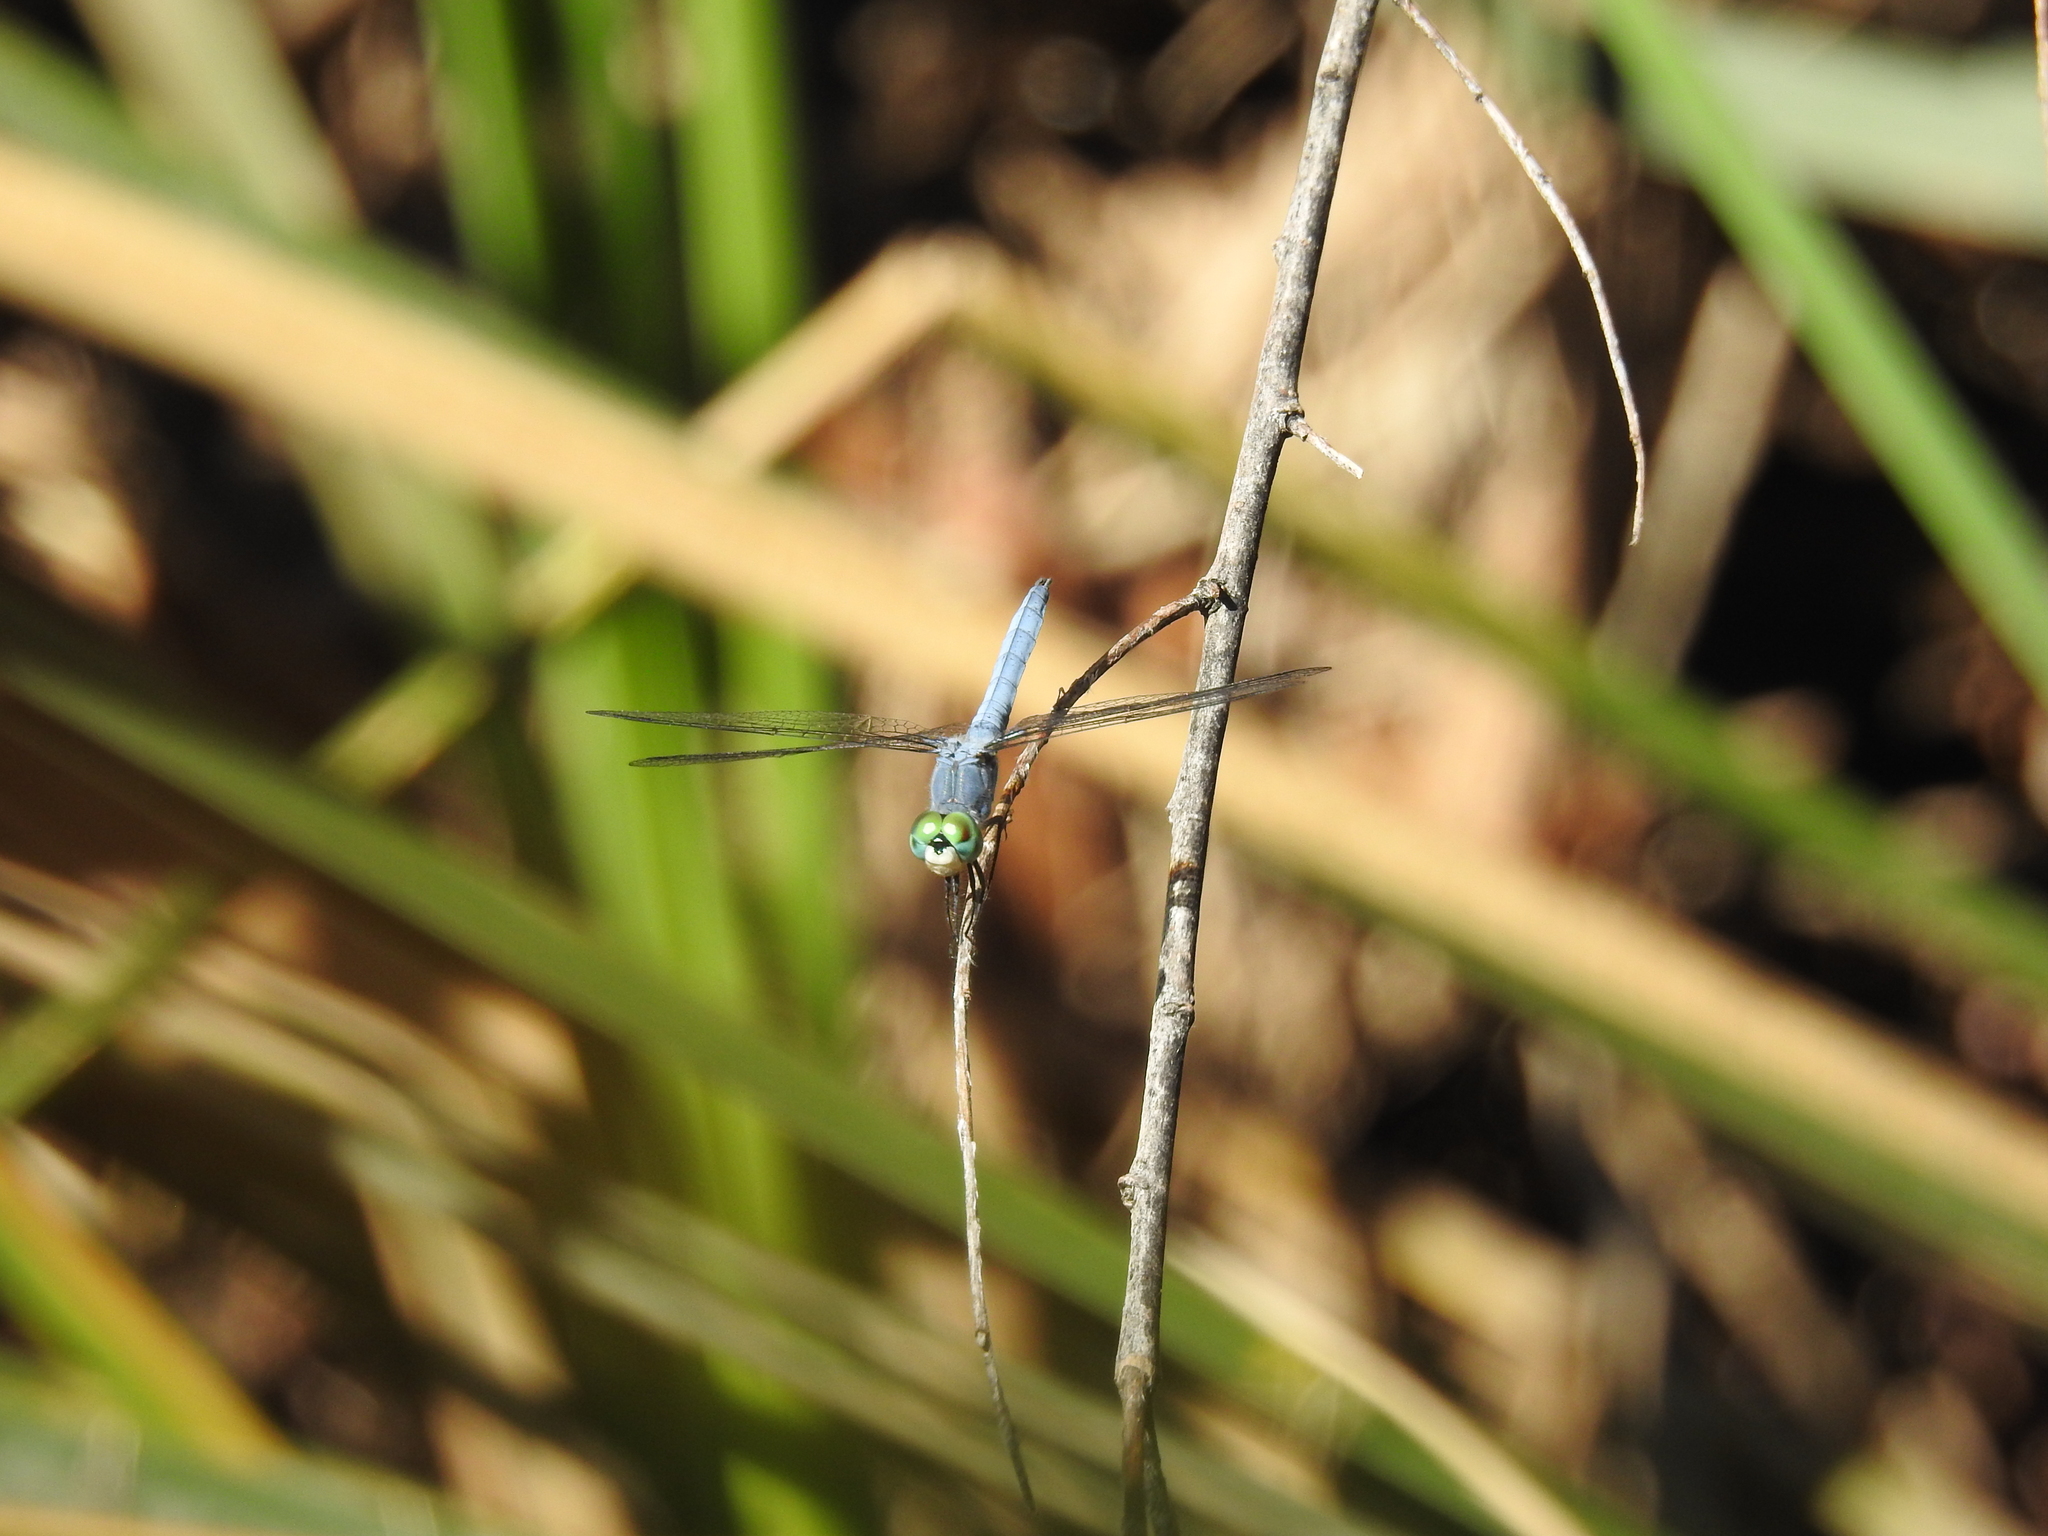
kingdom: Animalia
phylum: Arthropoda
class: Insecta
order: Odonata
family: Libellulidae
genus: Pachydiplax
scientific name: Pachydiplax longipennis
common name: Blue dasher
